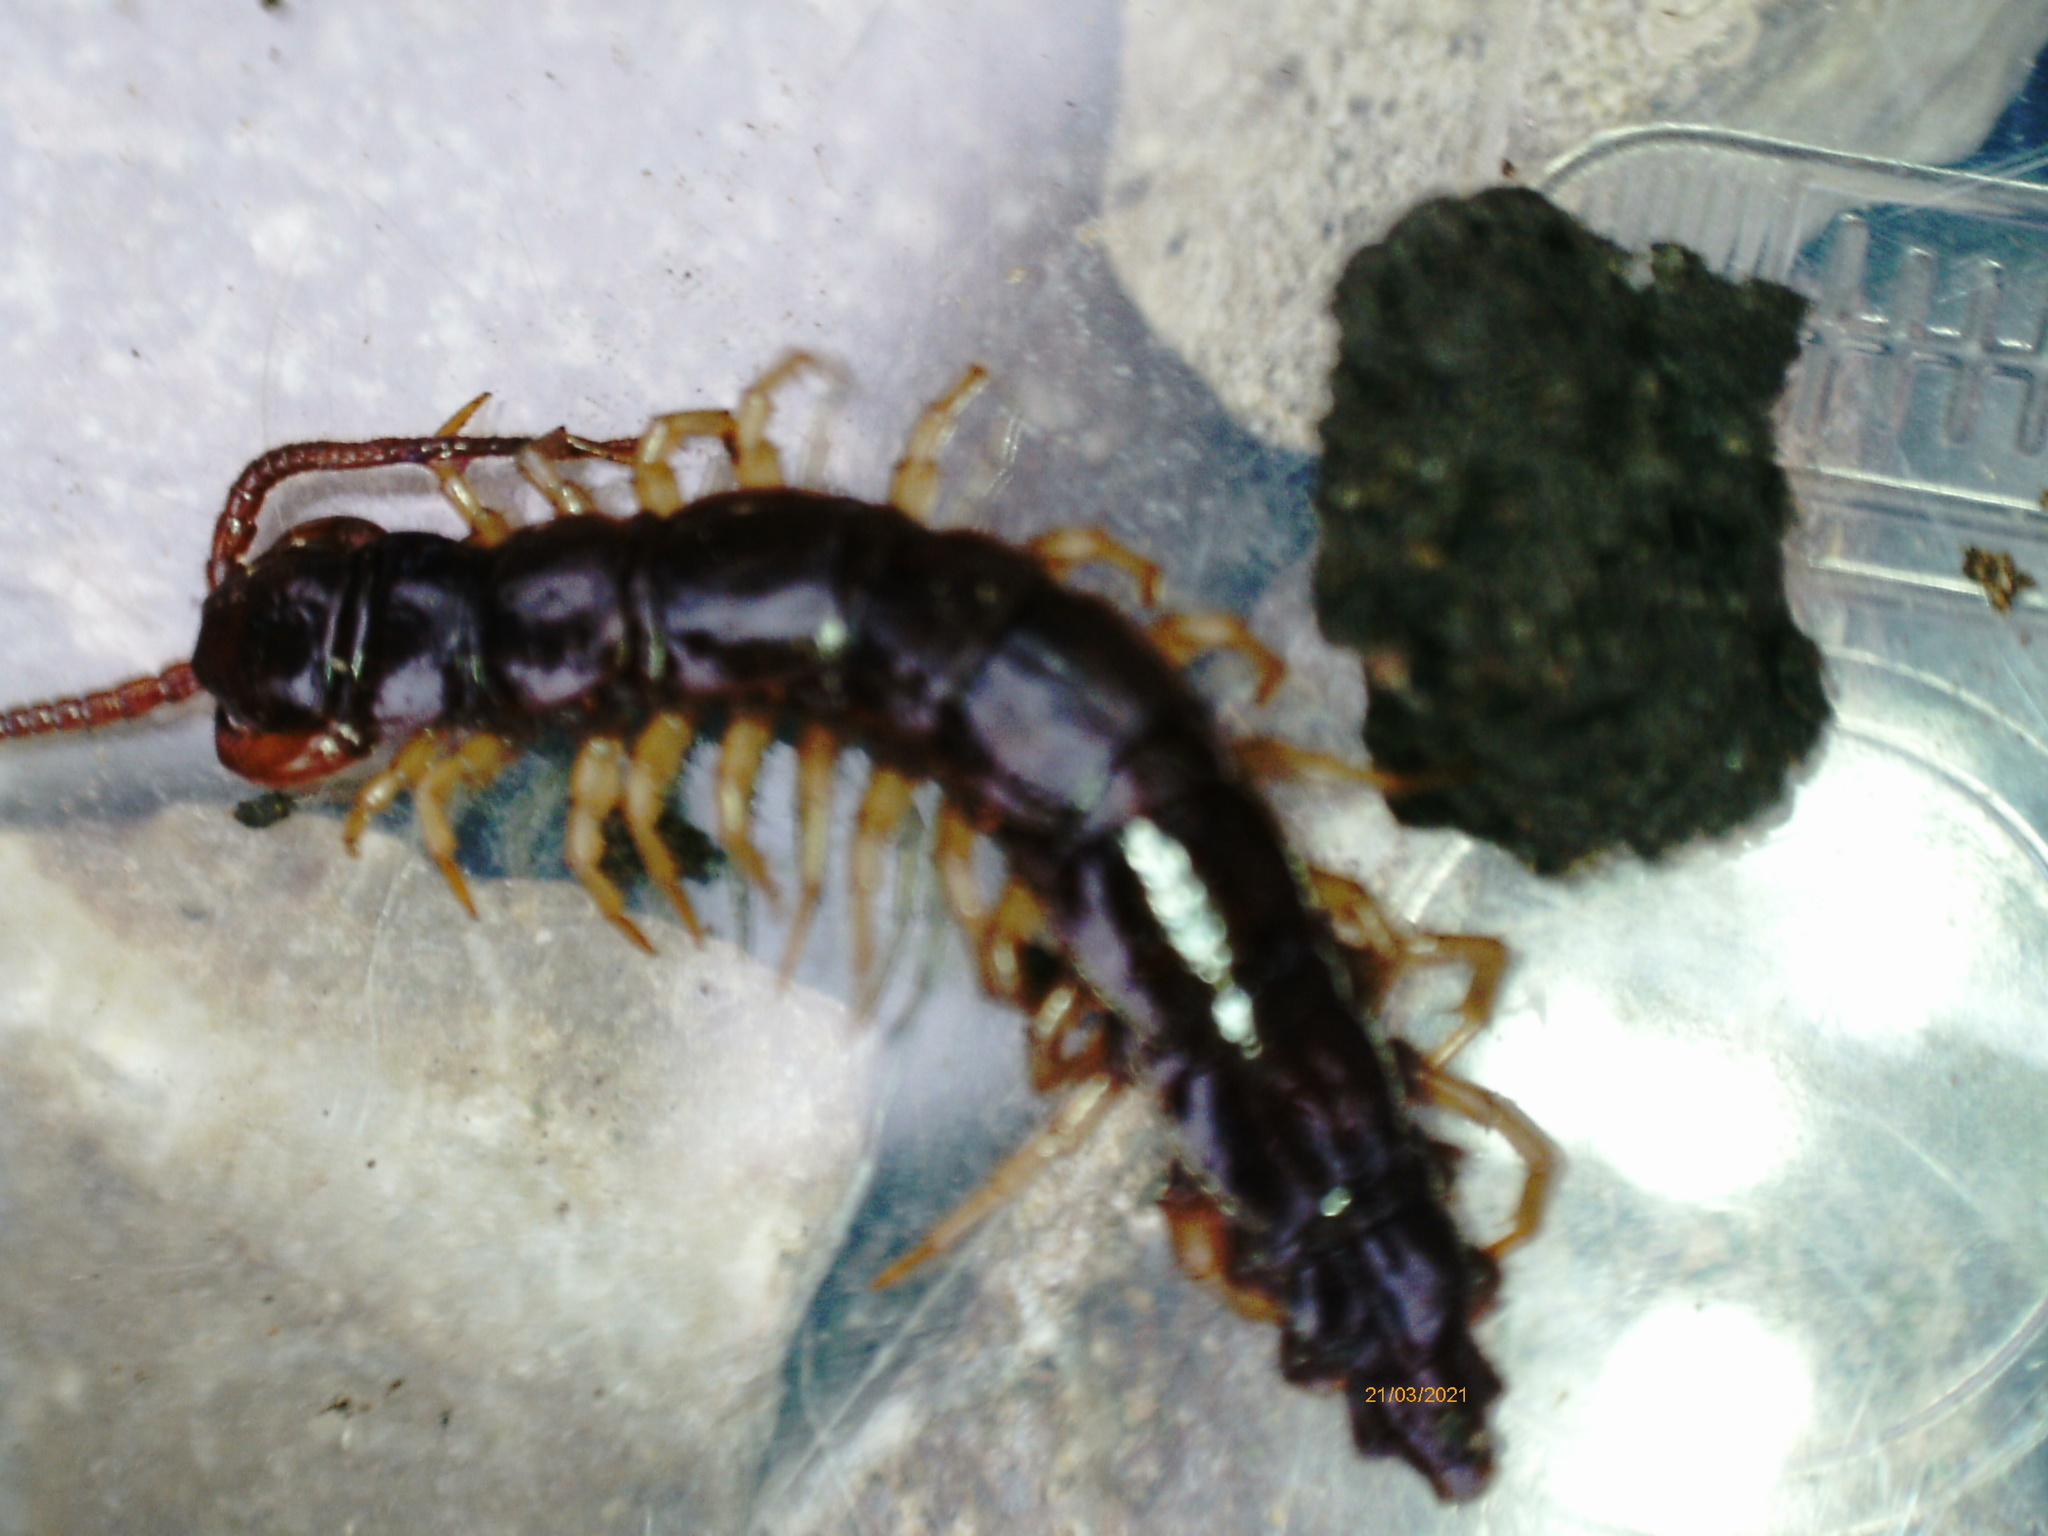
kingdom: Animalia
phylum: Arthropoda
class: Chilopoda
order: Lithobiomorpha
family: Lithobiidae
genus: Lithobius
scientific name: Lithobius forficatus
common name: Centipede
